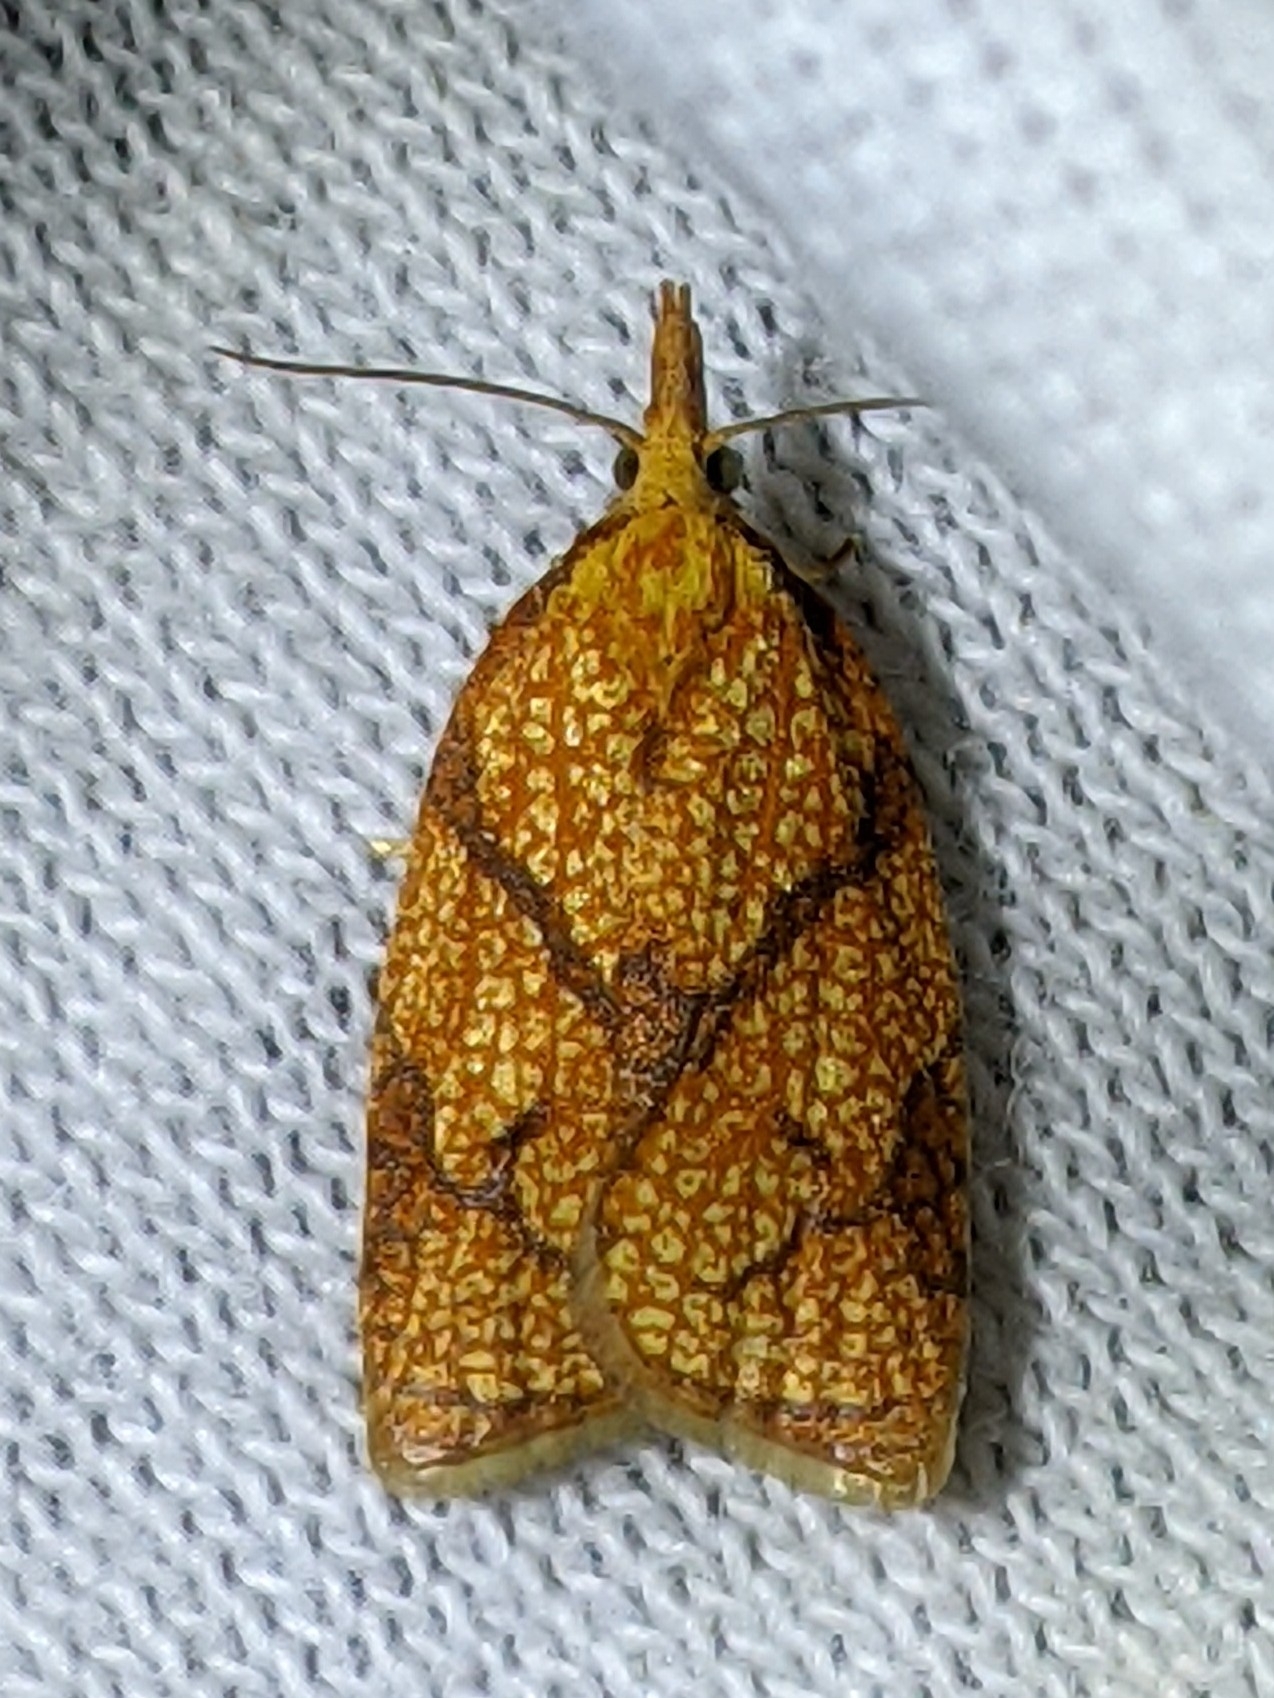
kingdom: Animalia
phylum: Arthropoda
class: Insecta
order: Lepidoptera
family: Tortricidae
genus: Cenopis
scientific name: Cenopis reticulatana
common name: Reticulated fruitworm moth
